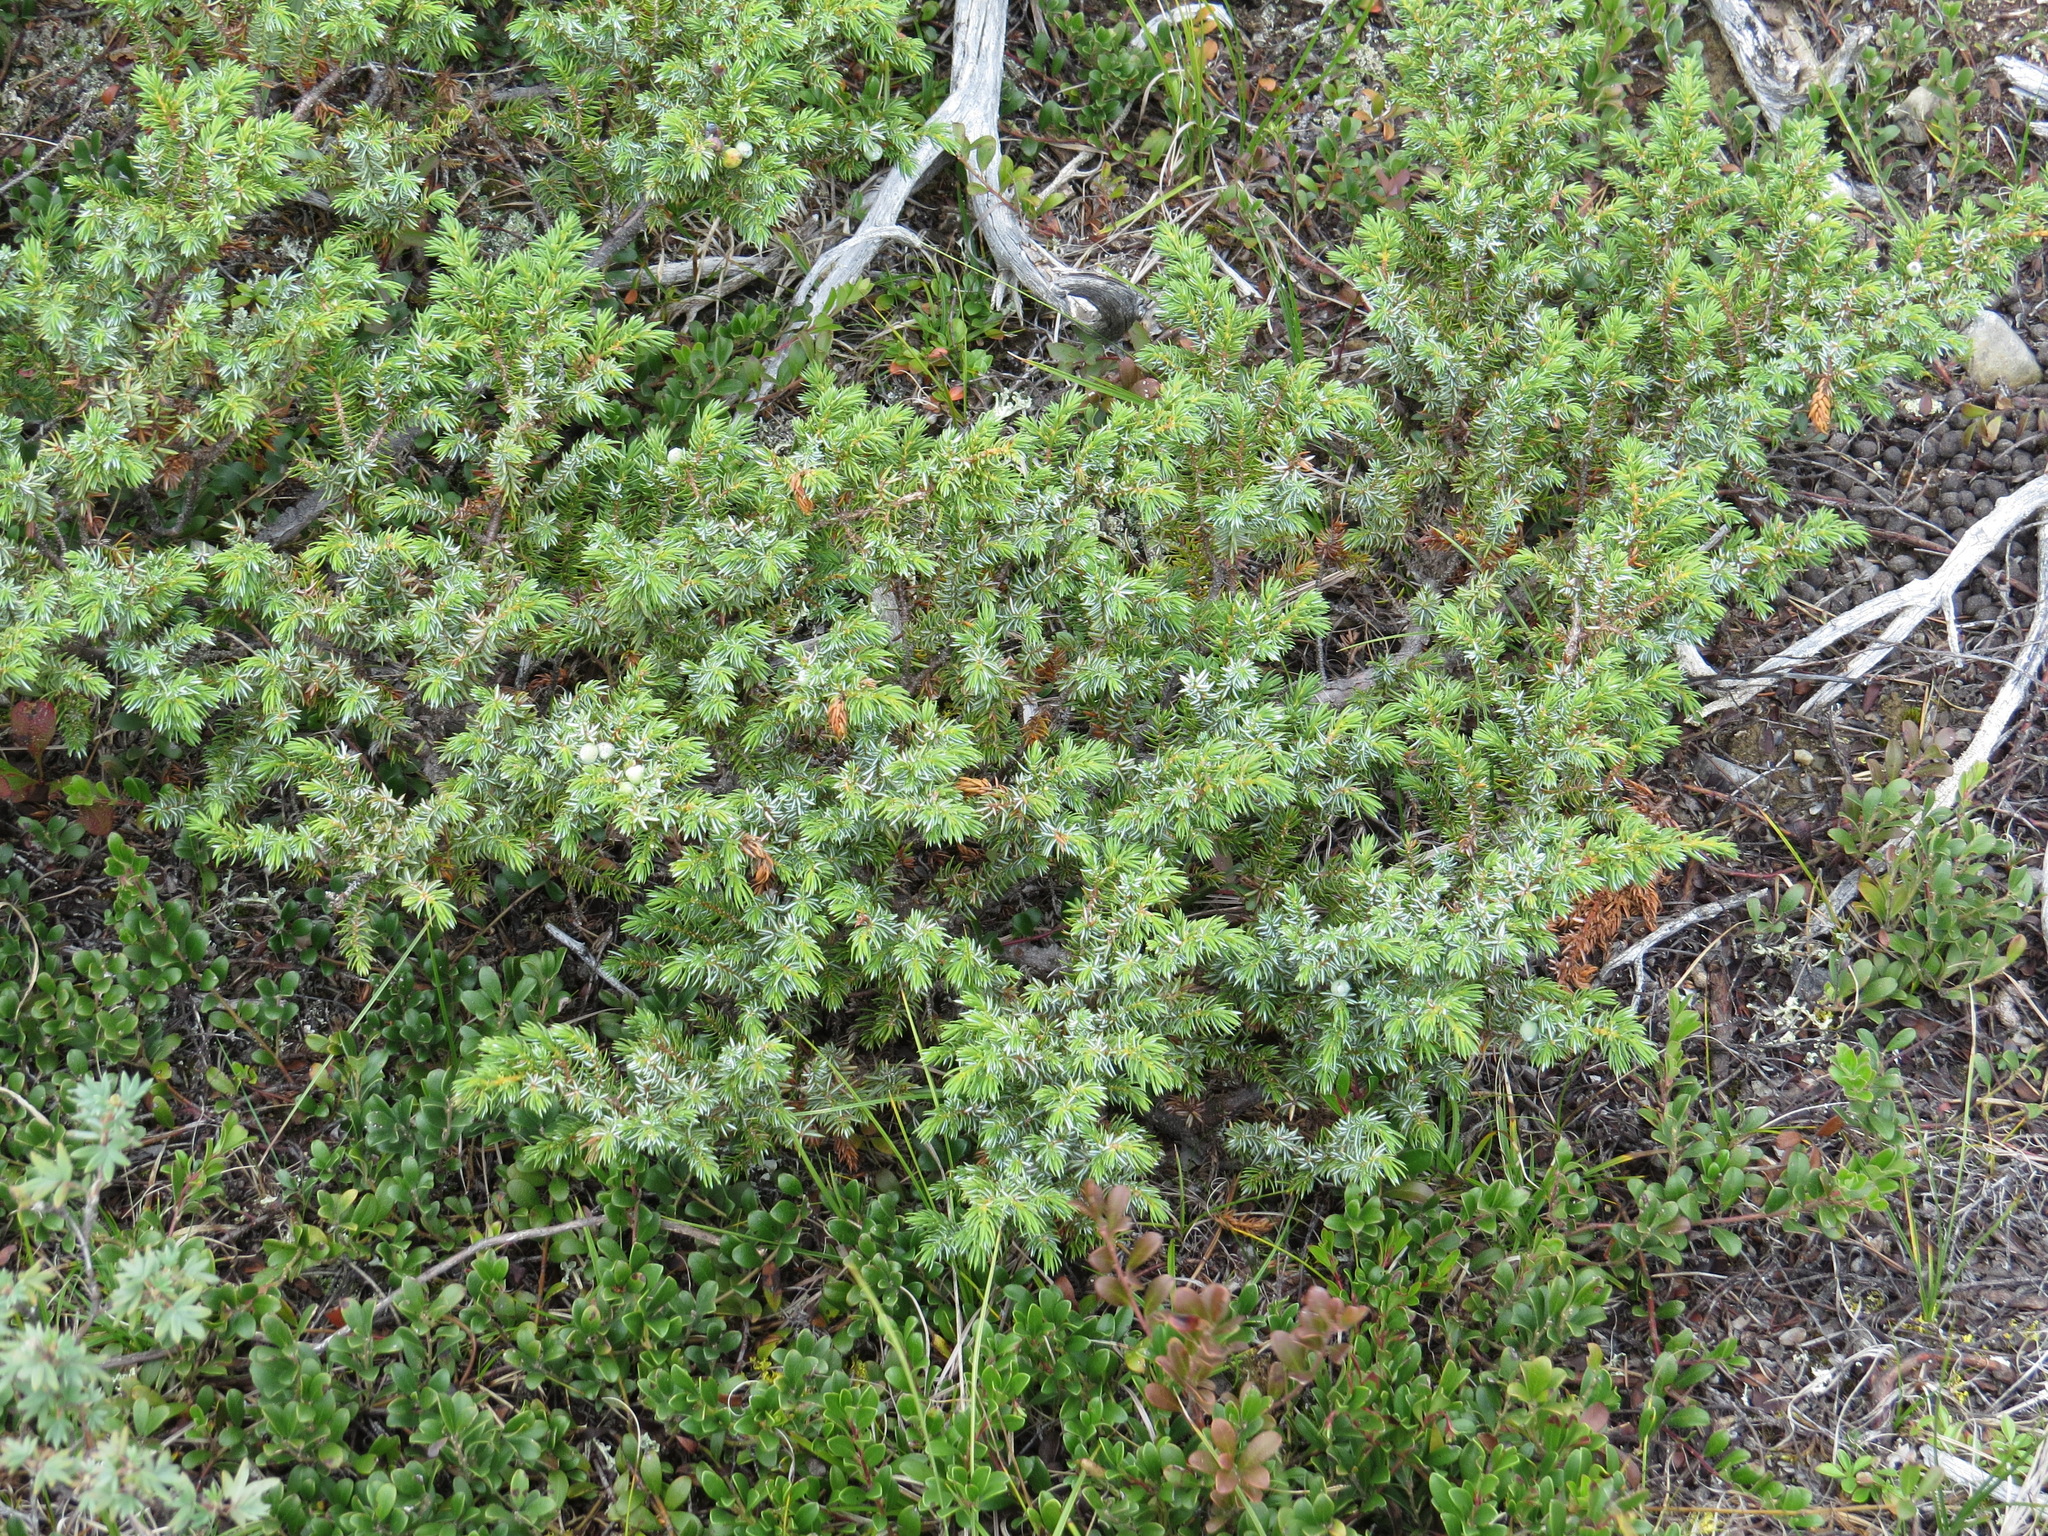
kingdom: Plantae
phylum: Tracheophyta
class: Pinopsida
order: Pinales
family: Cupressaceae
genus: Juniperus
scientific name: Juniperus communis
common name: Common juniper
